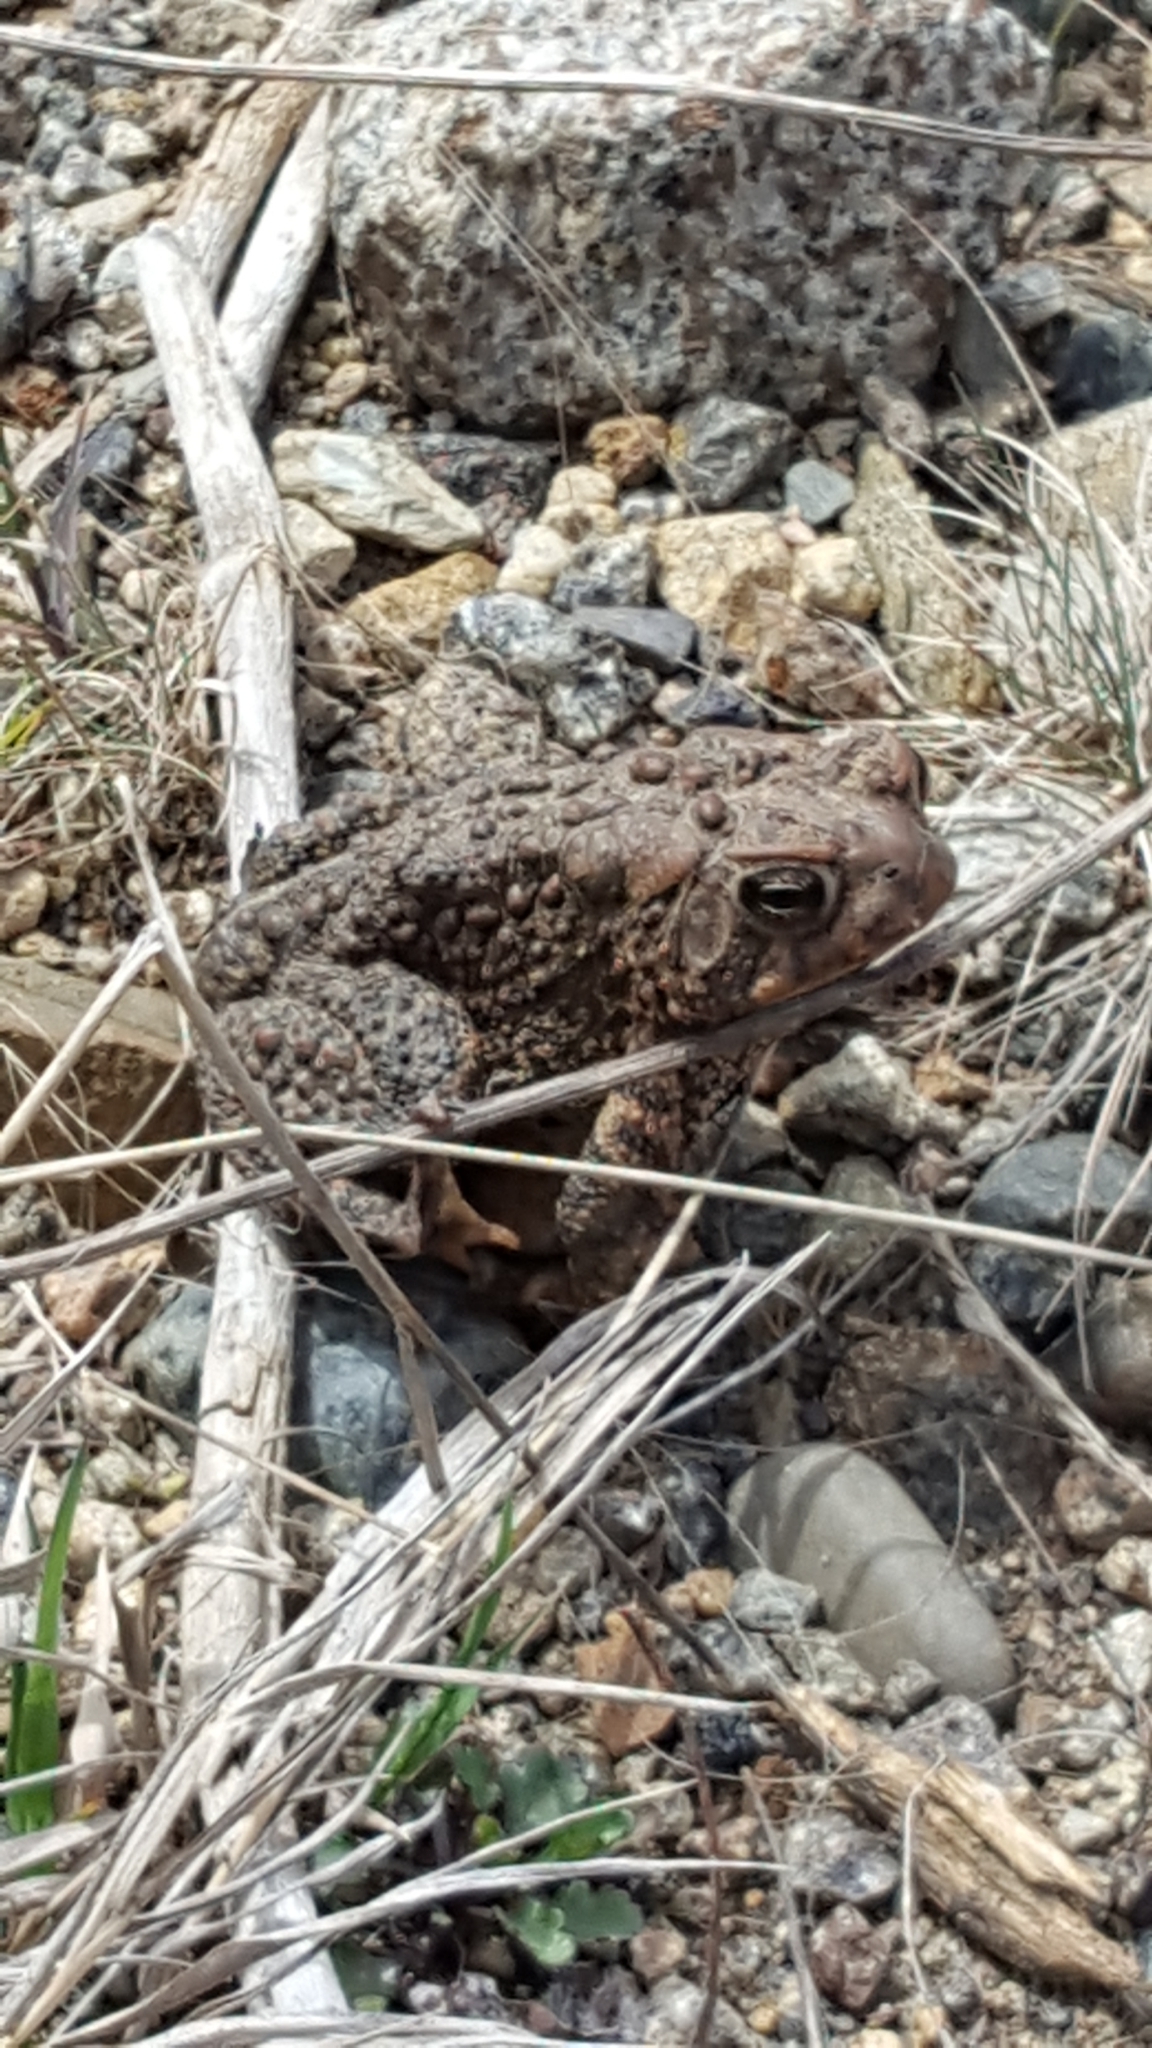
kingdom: Animalia
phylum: Chordata
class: Amphibia
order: Anura
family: Bufonidae
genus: Anaxyrus
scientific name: Anaxyrus americanus
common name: American toad
